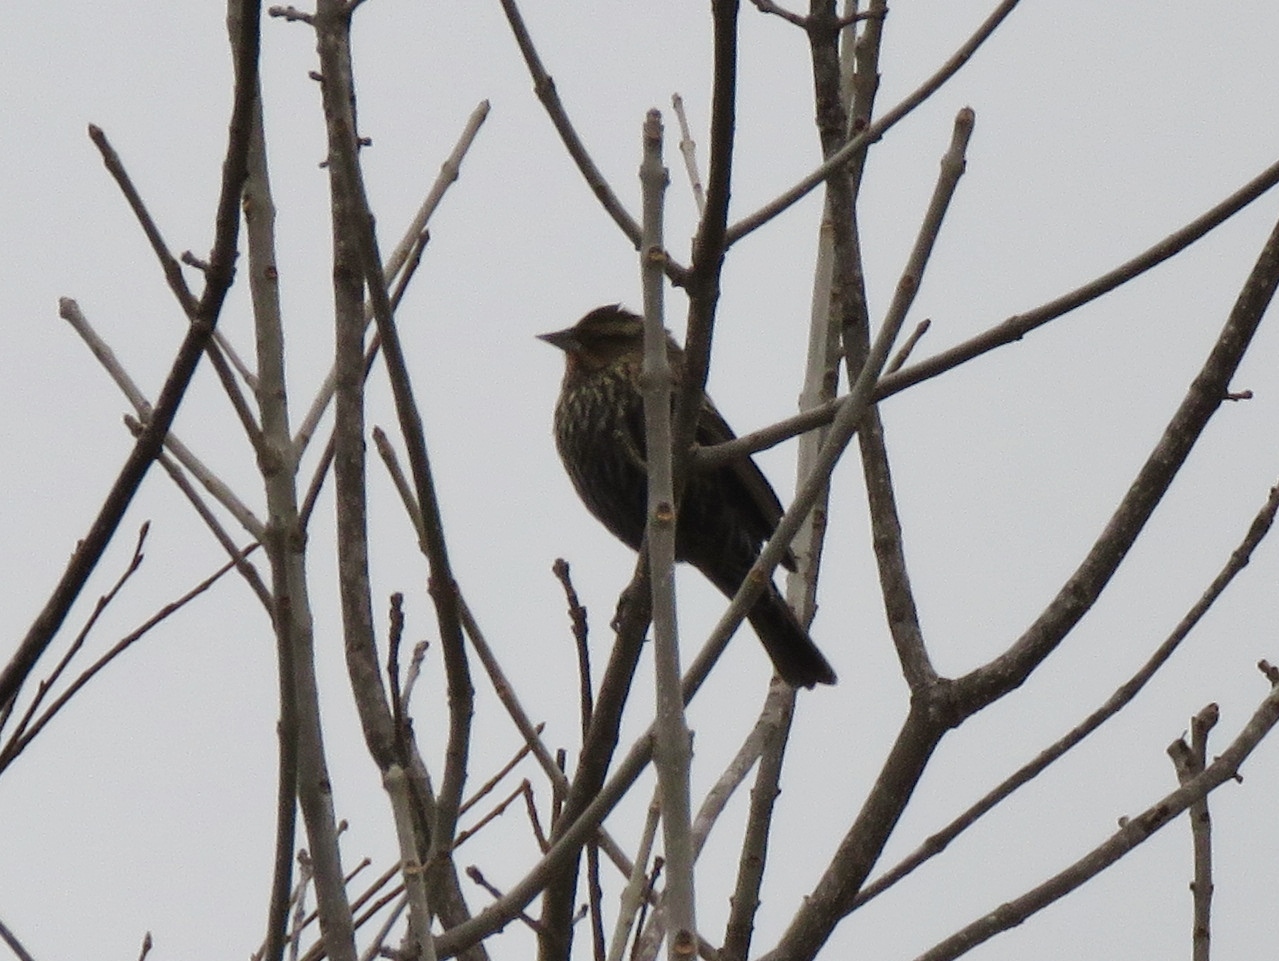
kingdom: Animalia
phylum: Chordata
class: Aves
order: Passeriformes
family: Icteridae
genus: Agelaius
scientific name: Agelaius phoeniceus
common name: Red-winged blackbird
